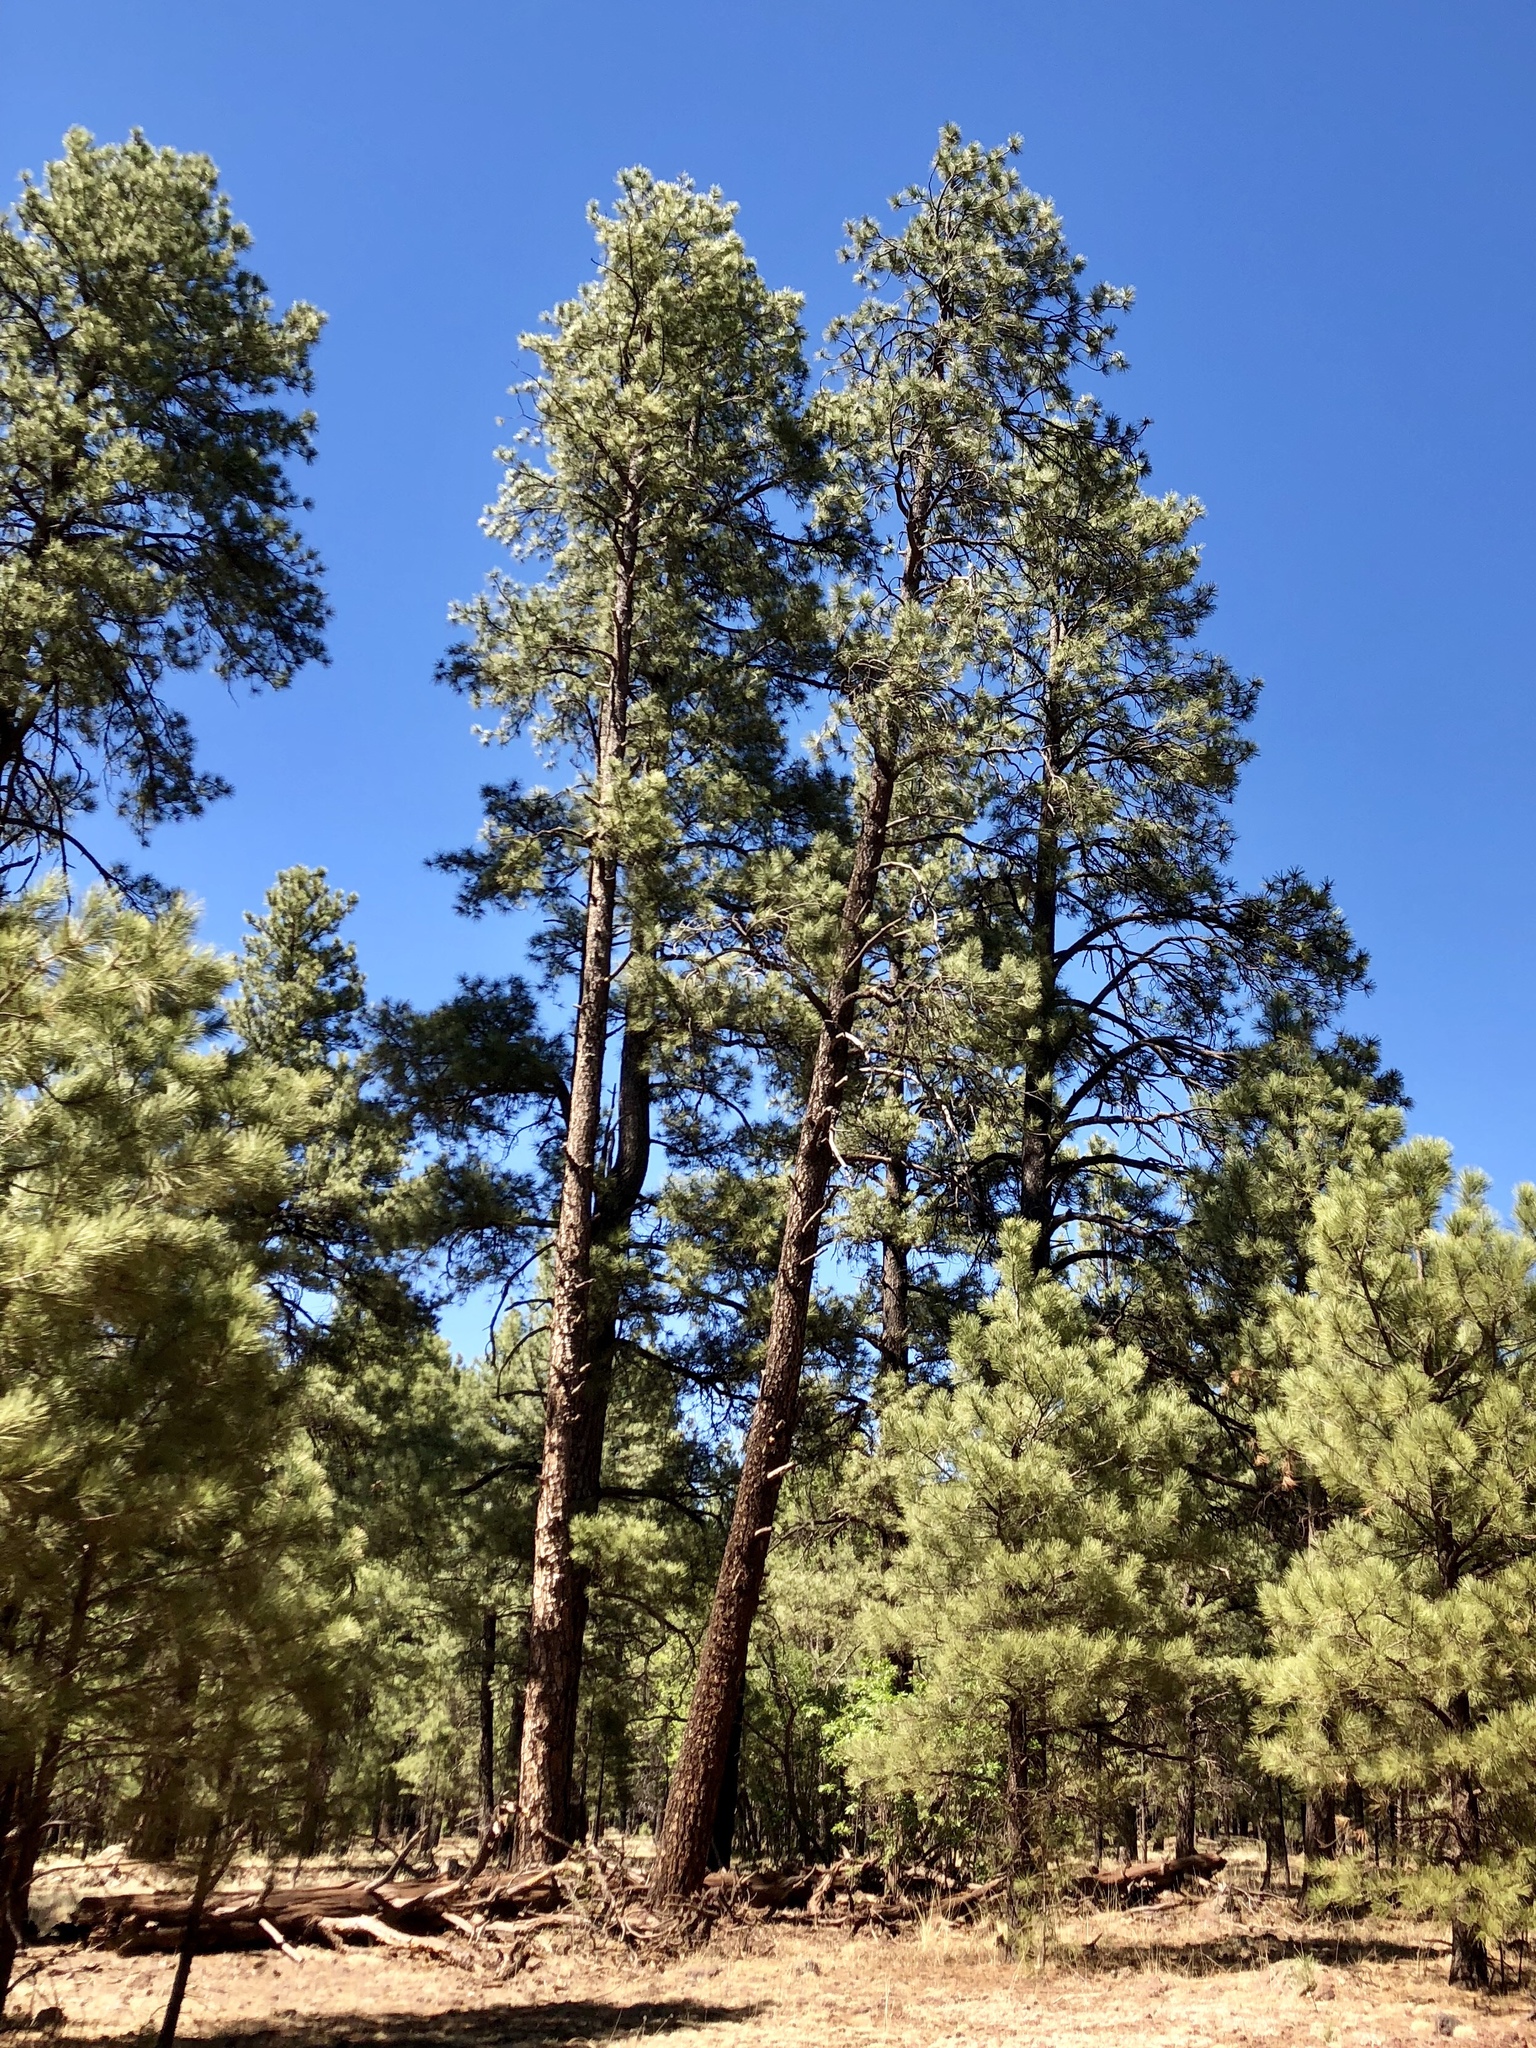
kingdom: Plantae
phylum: Tracheophyta
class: Pinopsida
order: Pinales
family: Pinaceae
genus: Pinus
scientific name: Pinus ponderosa
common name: Western yellow-pine
